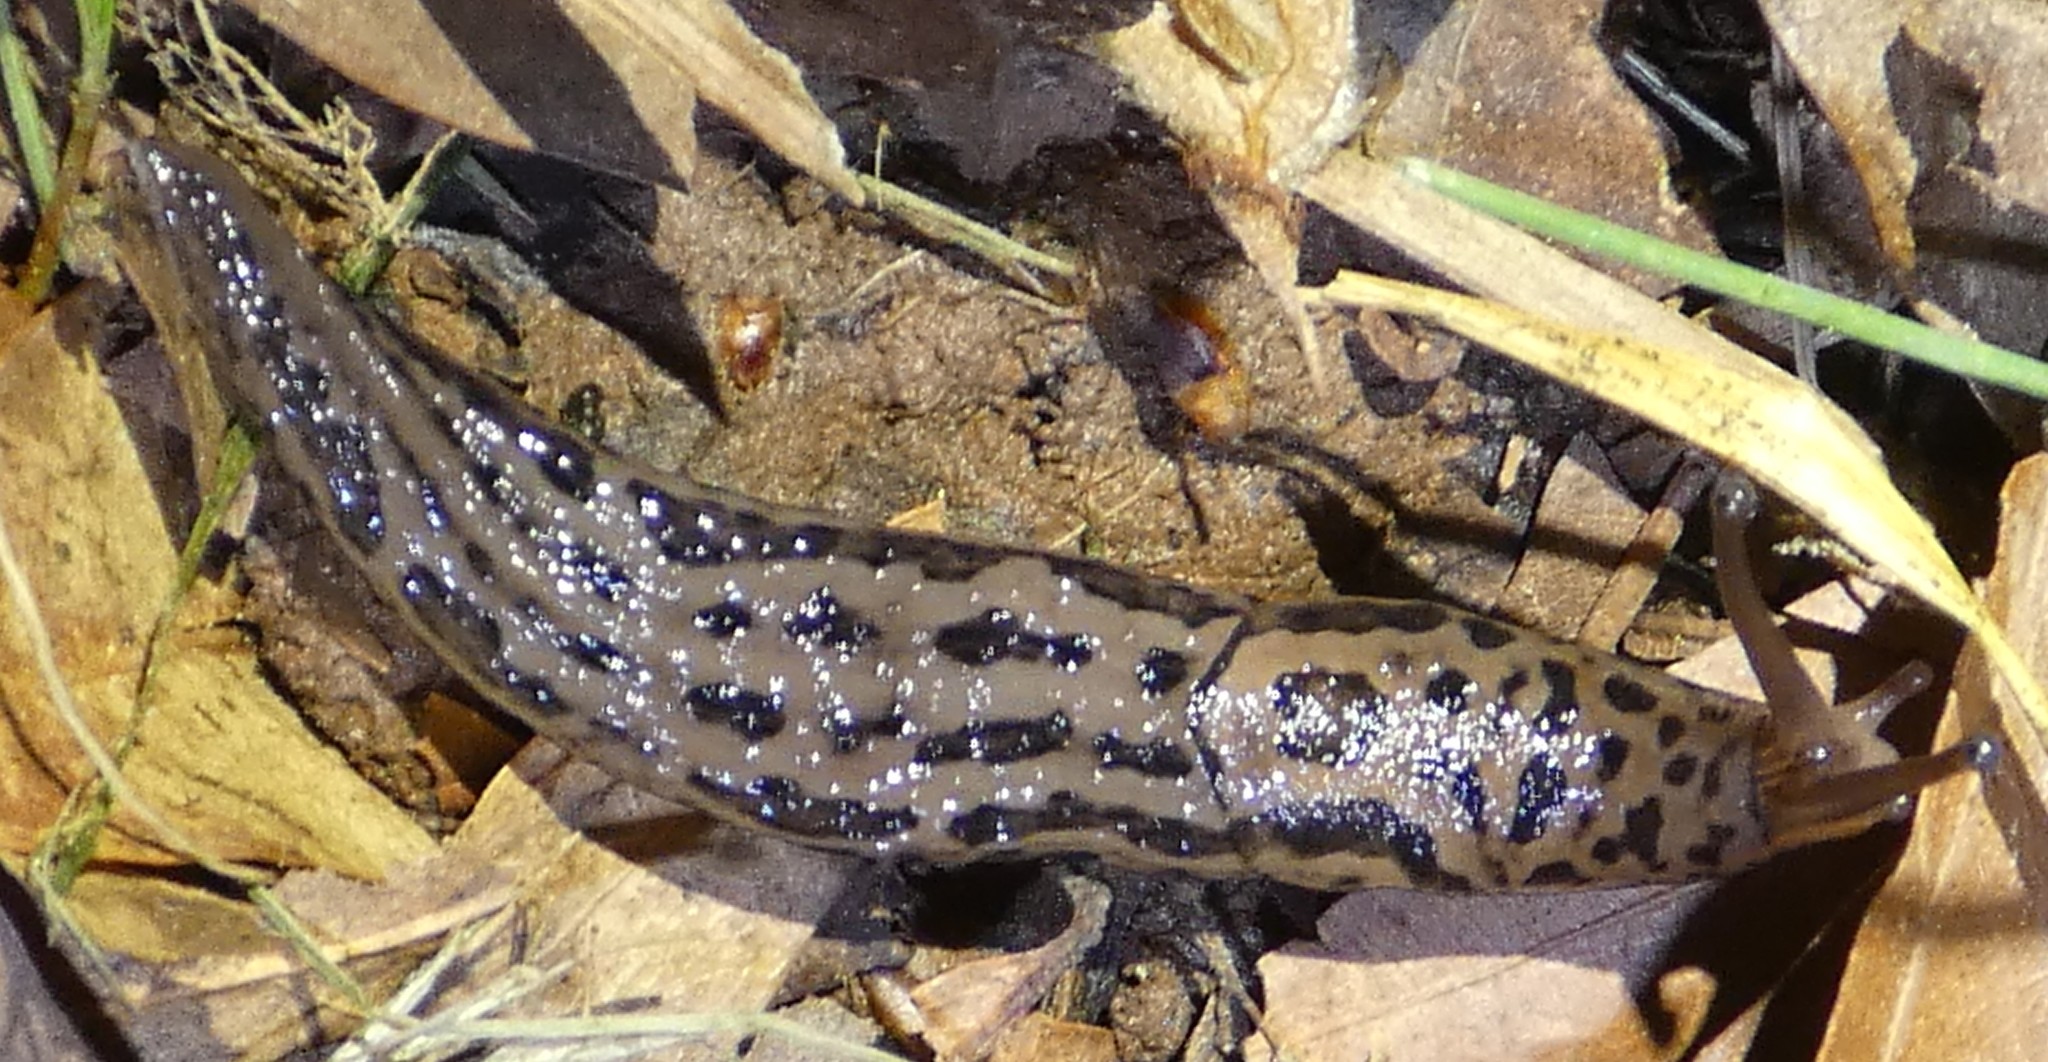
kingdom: Animalia
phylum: Mollusca
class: Gastropoda
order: Stylommatophora
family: Limacidae
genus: Limax
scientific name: Limax maximus
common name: Great grey slug
